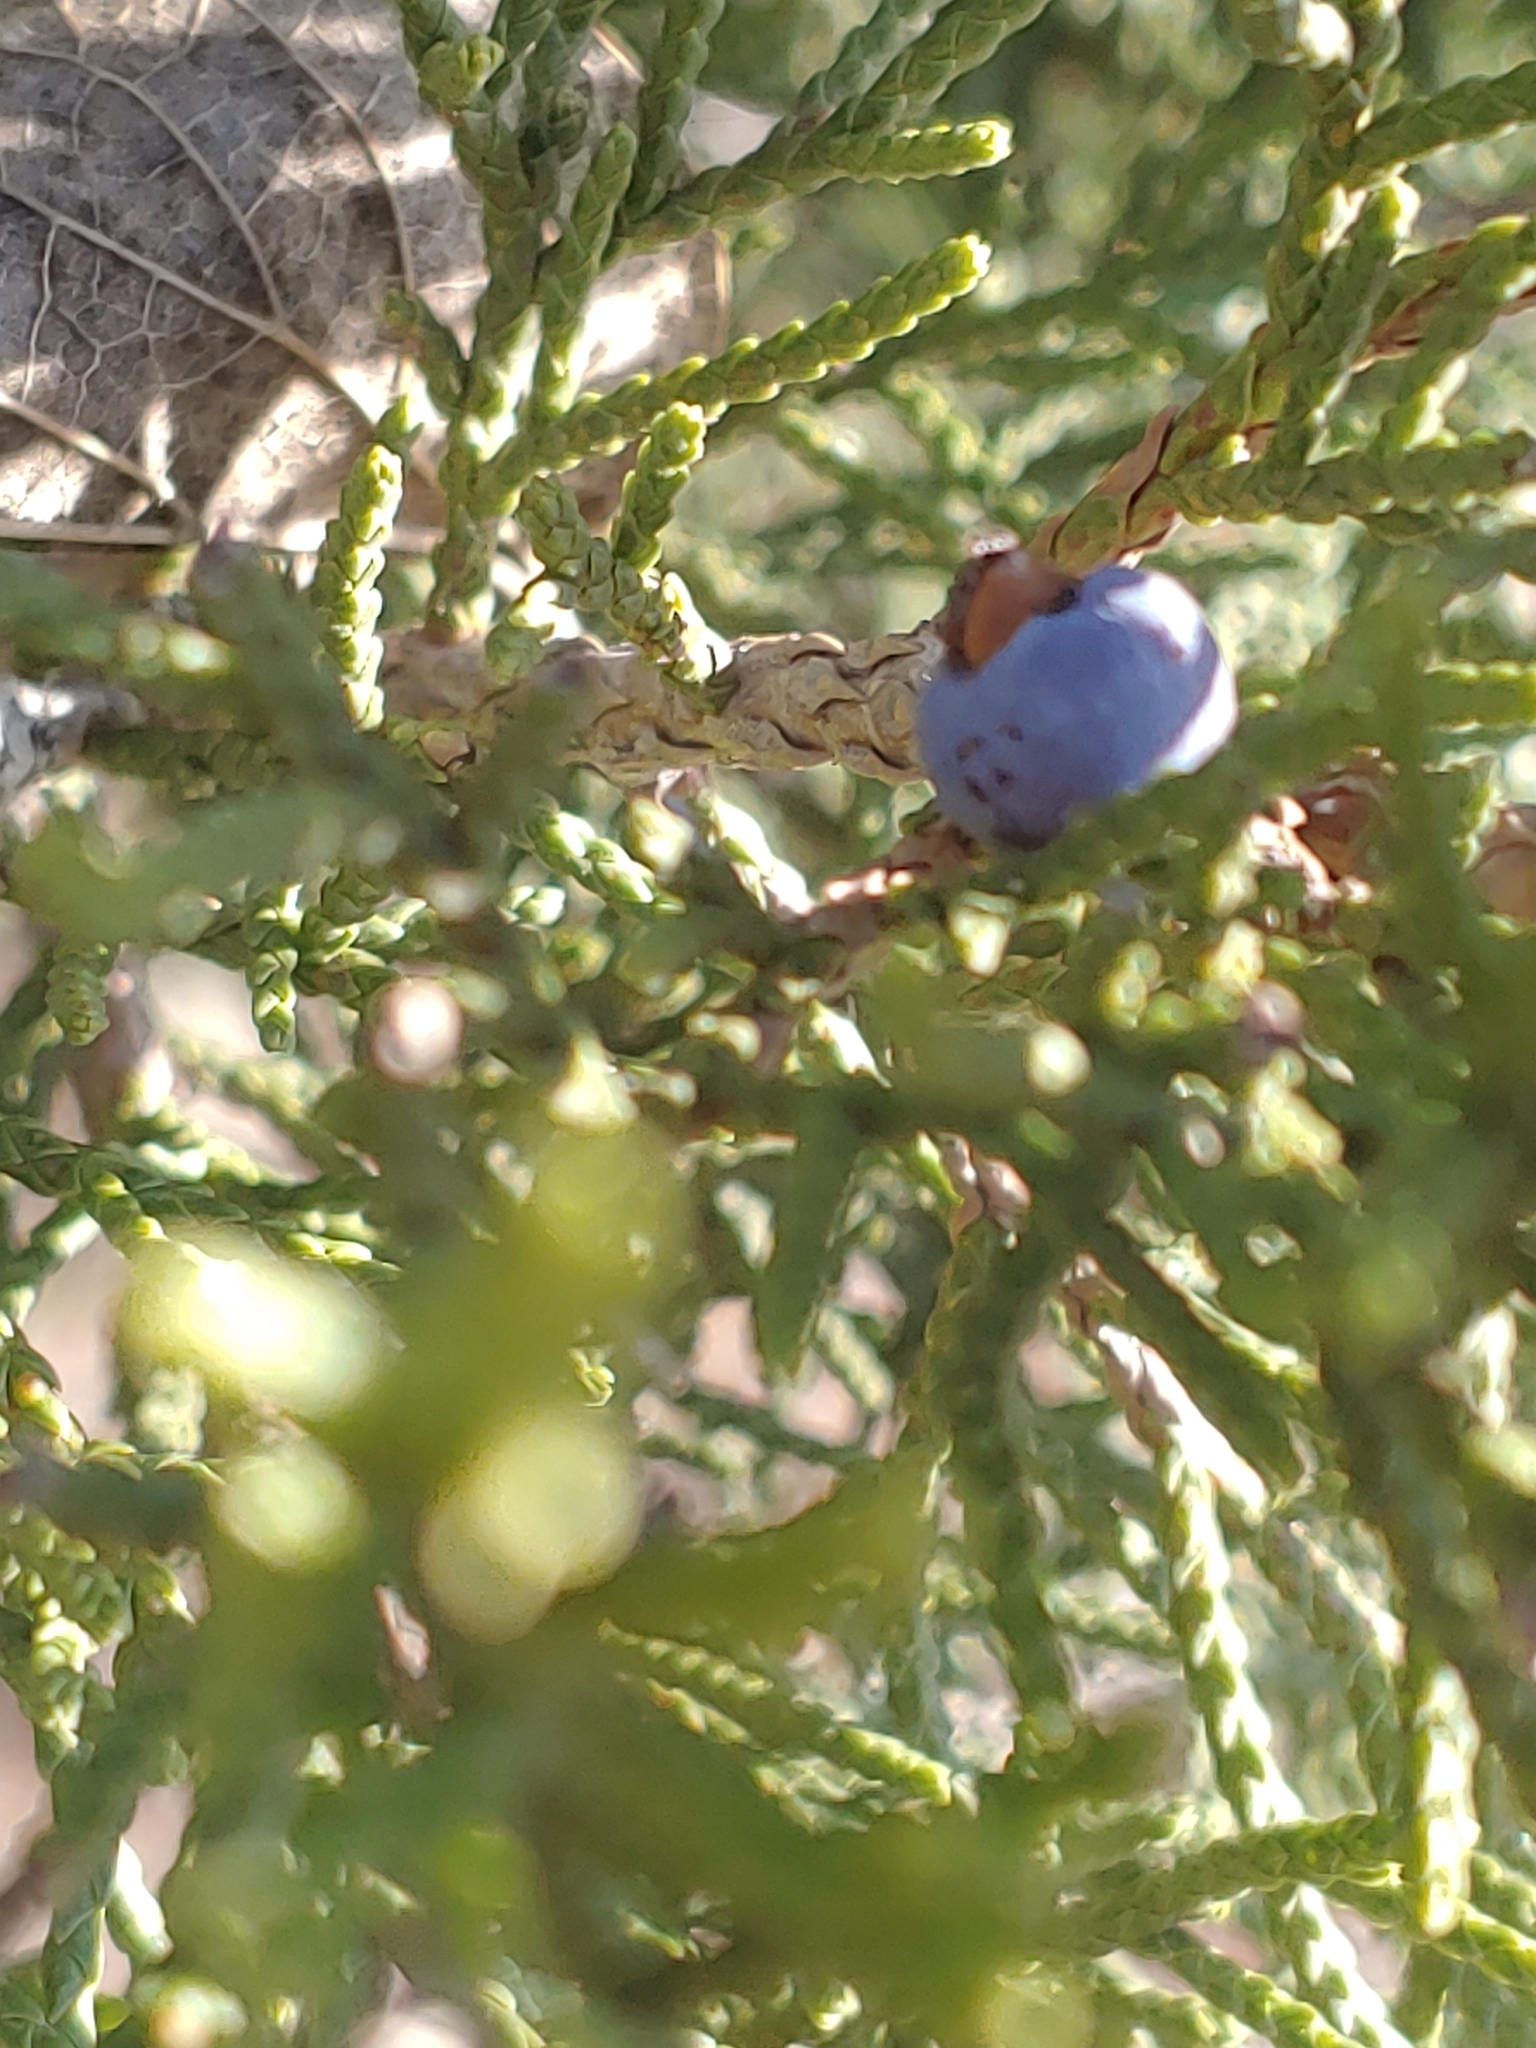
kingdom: Plantae
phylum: Tracheophyta
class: Pinopsida
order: Pinales
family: Cupressaceae
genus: Juniperus
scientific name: Juniperus ashei
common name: Mexican juniper
